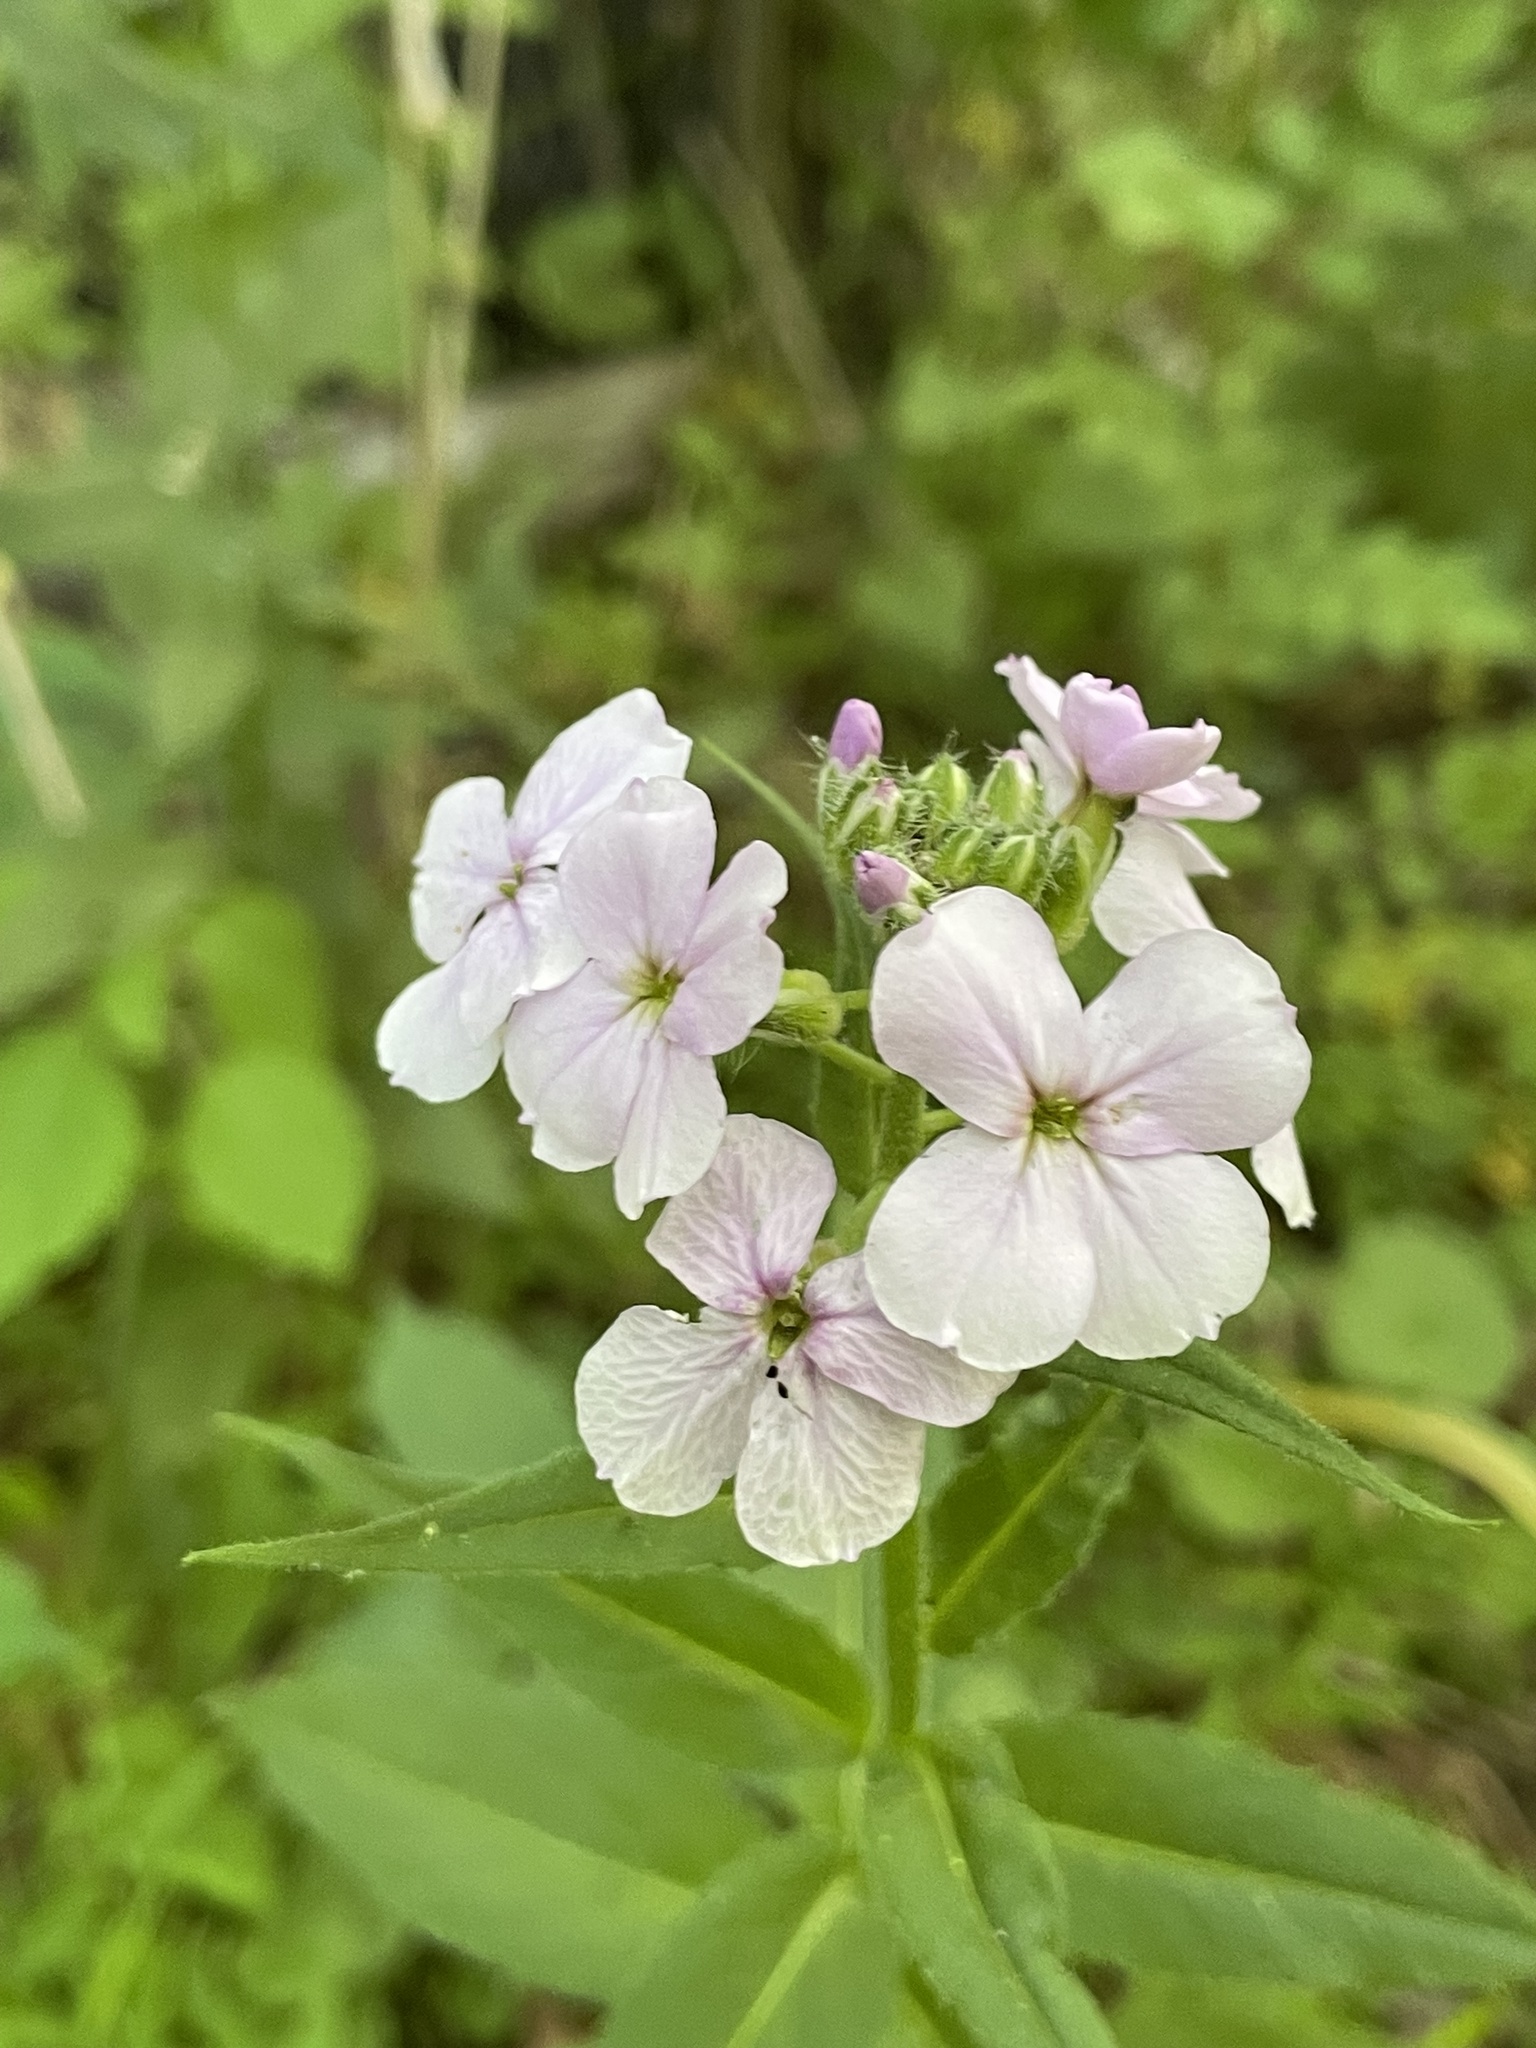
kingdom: Plantae
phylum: Tracheophyta
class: Magnoliopsida
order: Brassicales
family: Brassicaceae
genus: Hesperis
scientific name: Hesperis matronalis
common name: Dame's-violet
